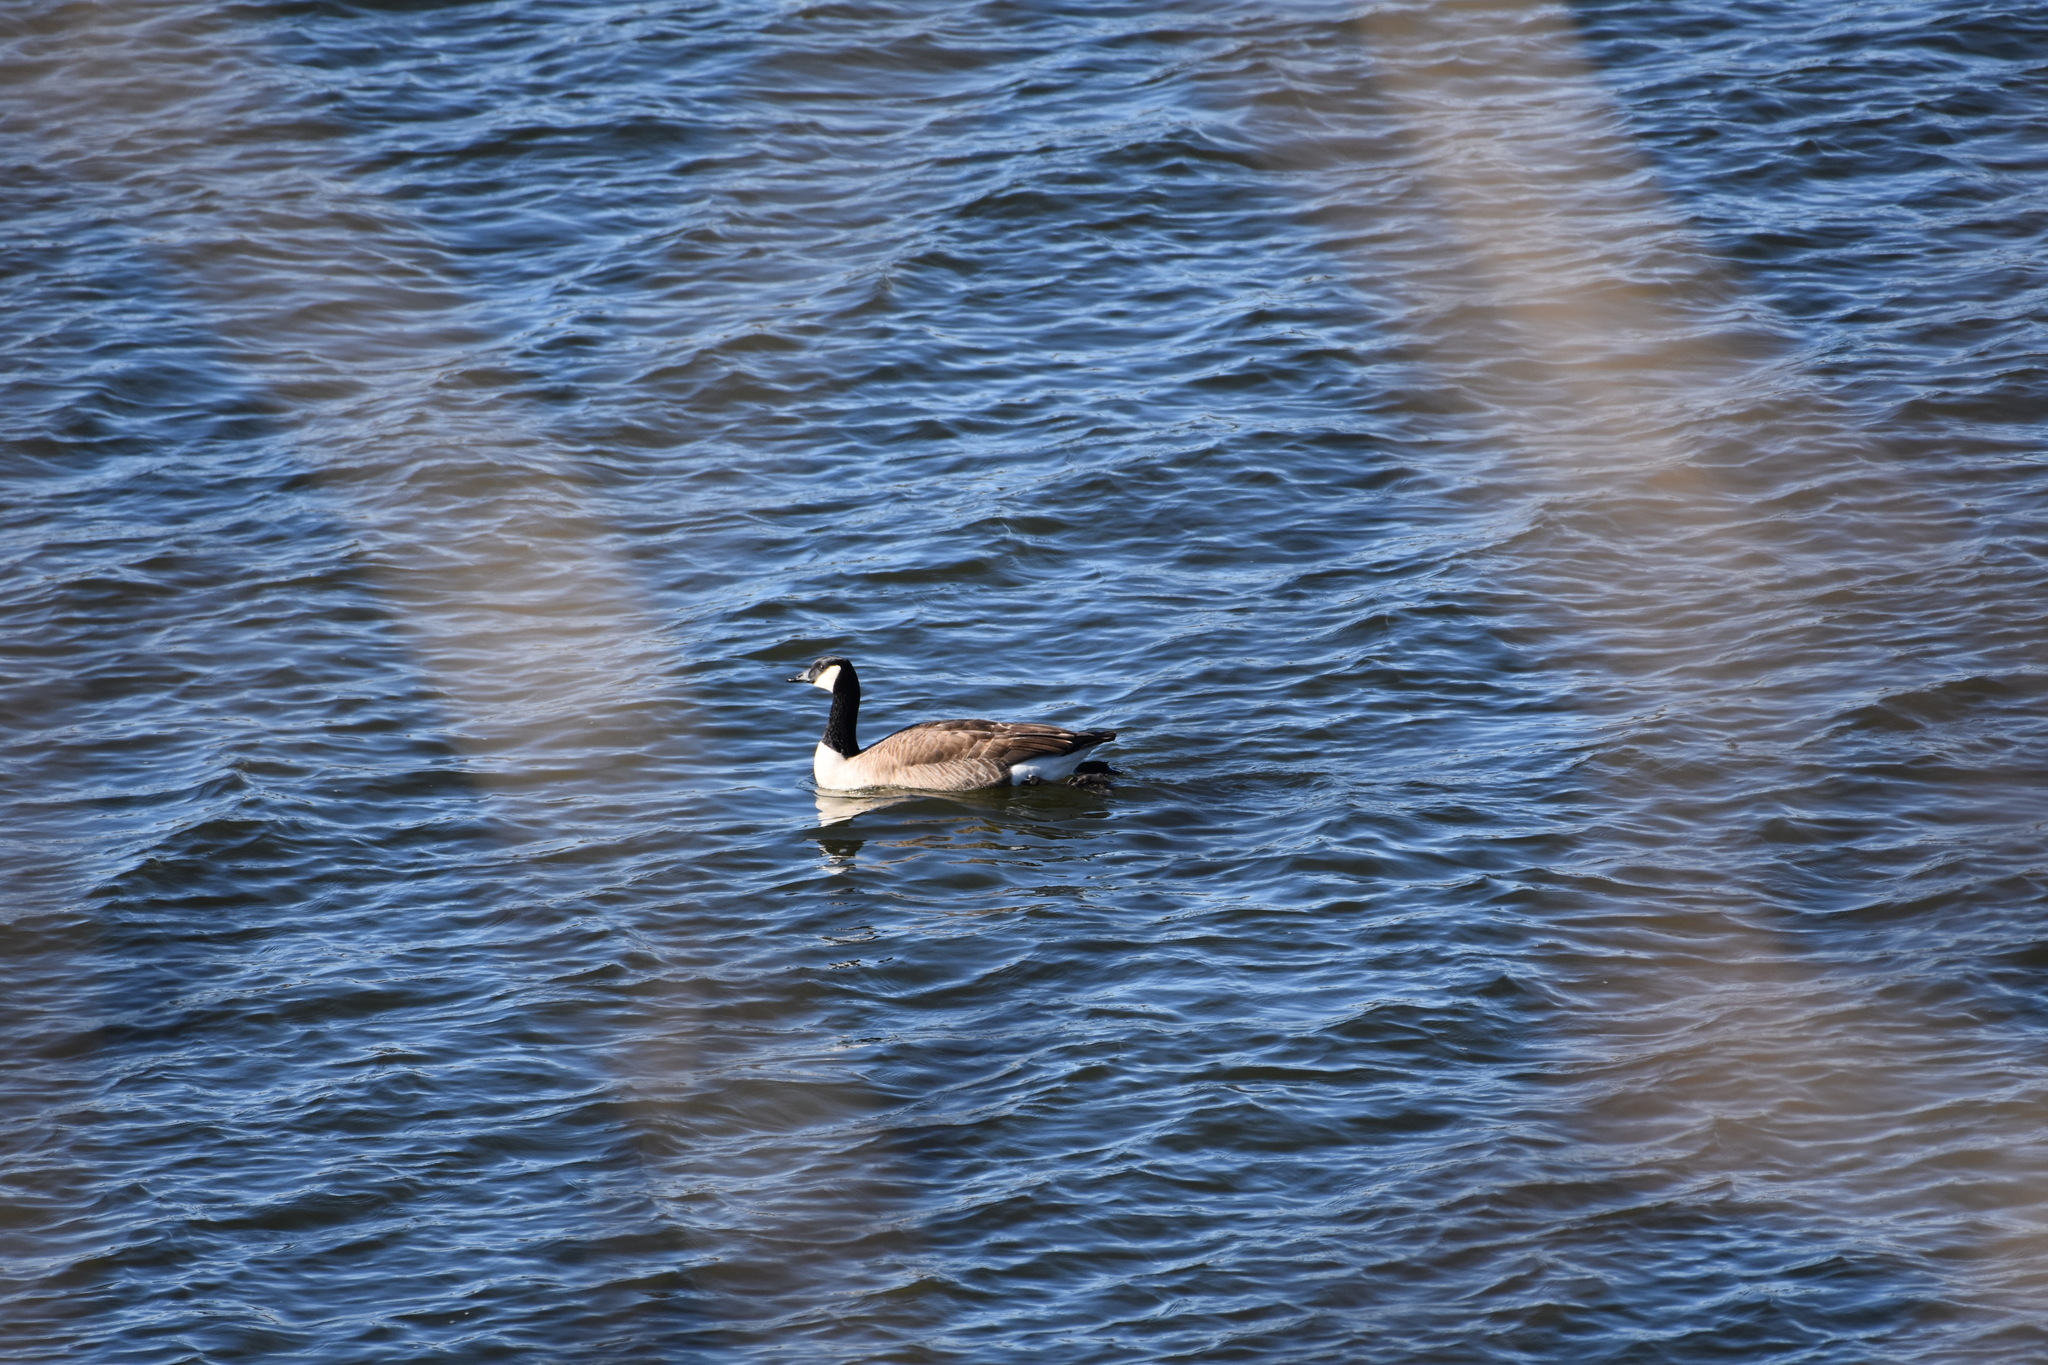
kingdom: Animalia
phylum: Chordata
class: Aves
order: Anseriformes
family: Anatidae
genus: Branta
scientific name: Branta canadensis
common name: Canada goose
